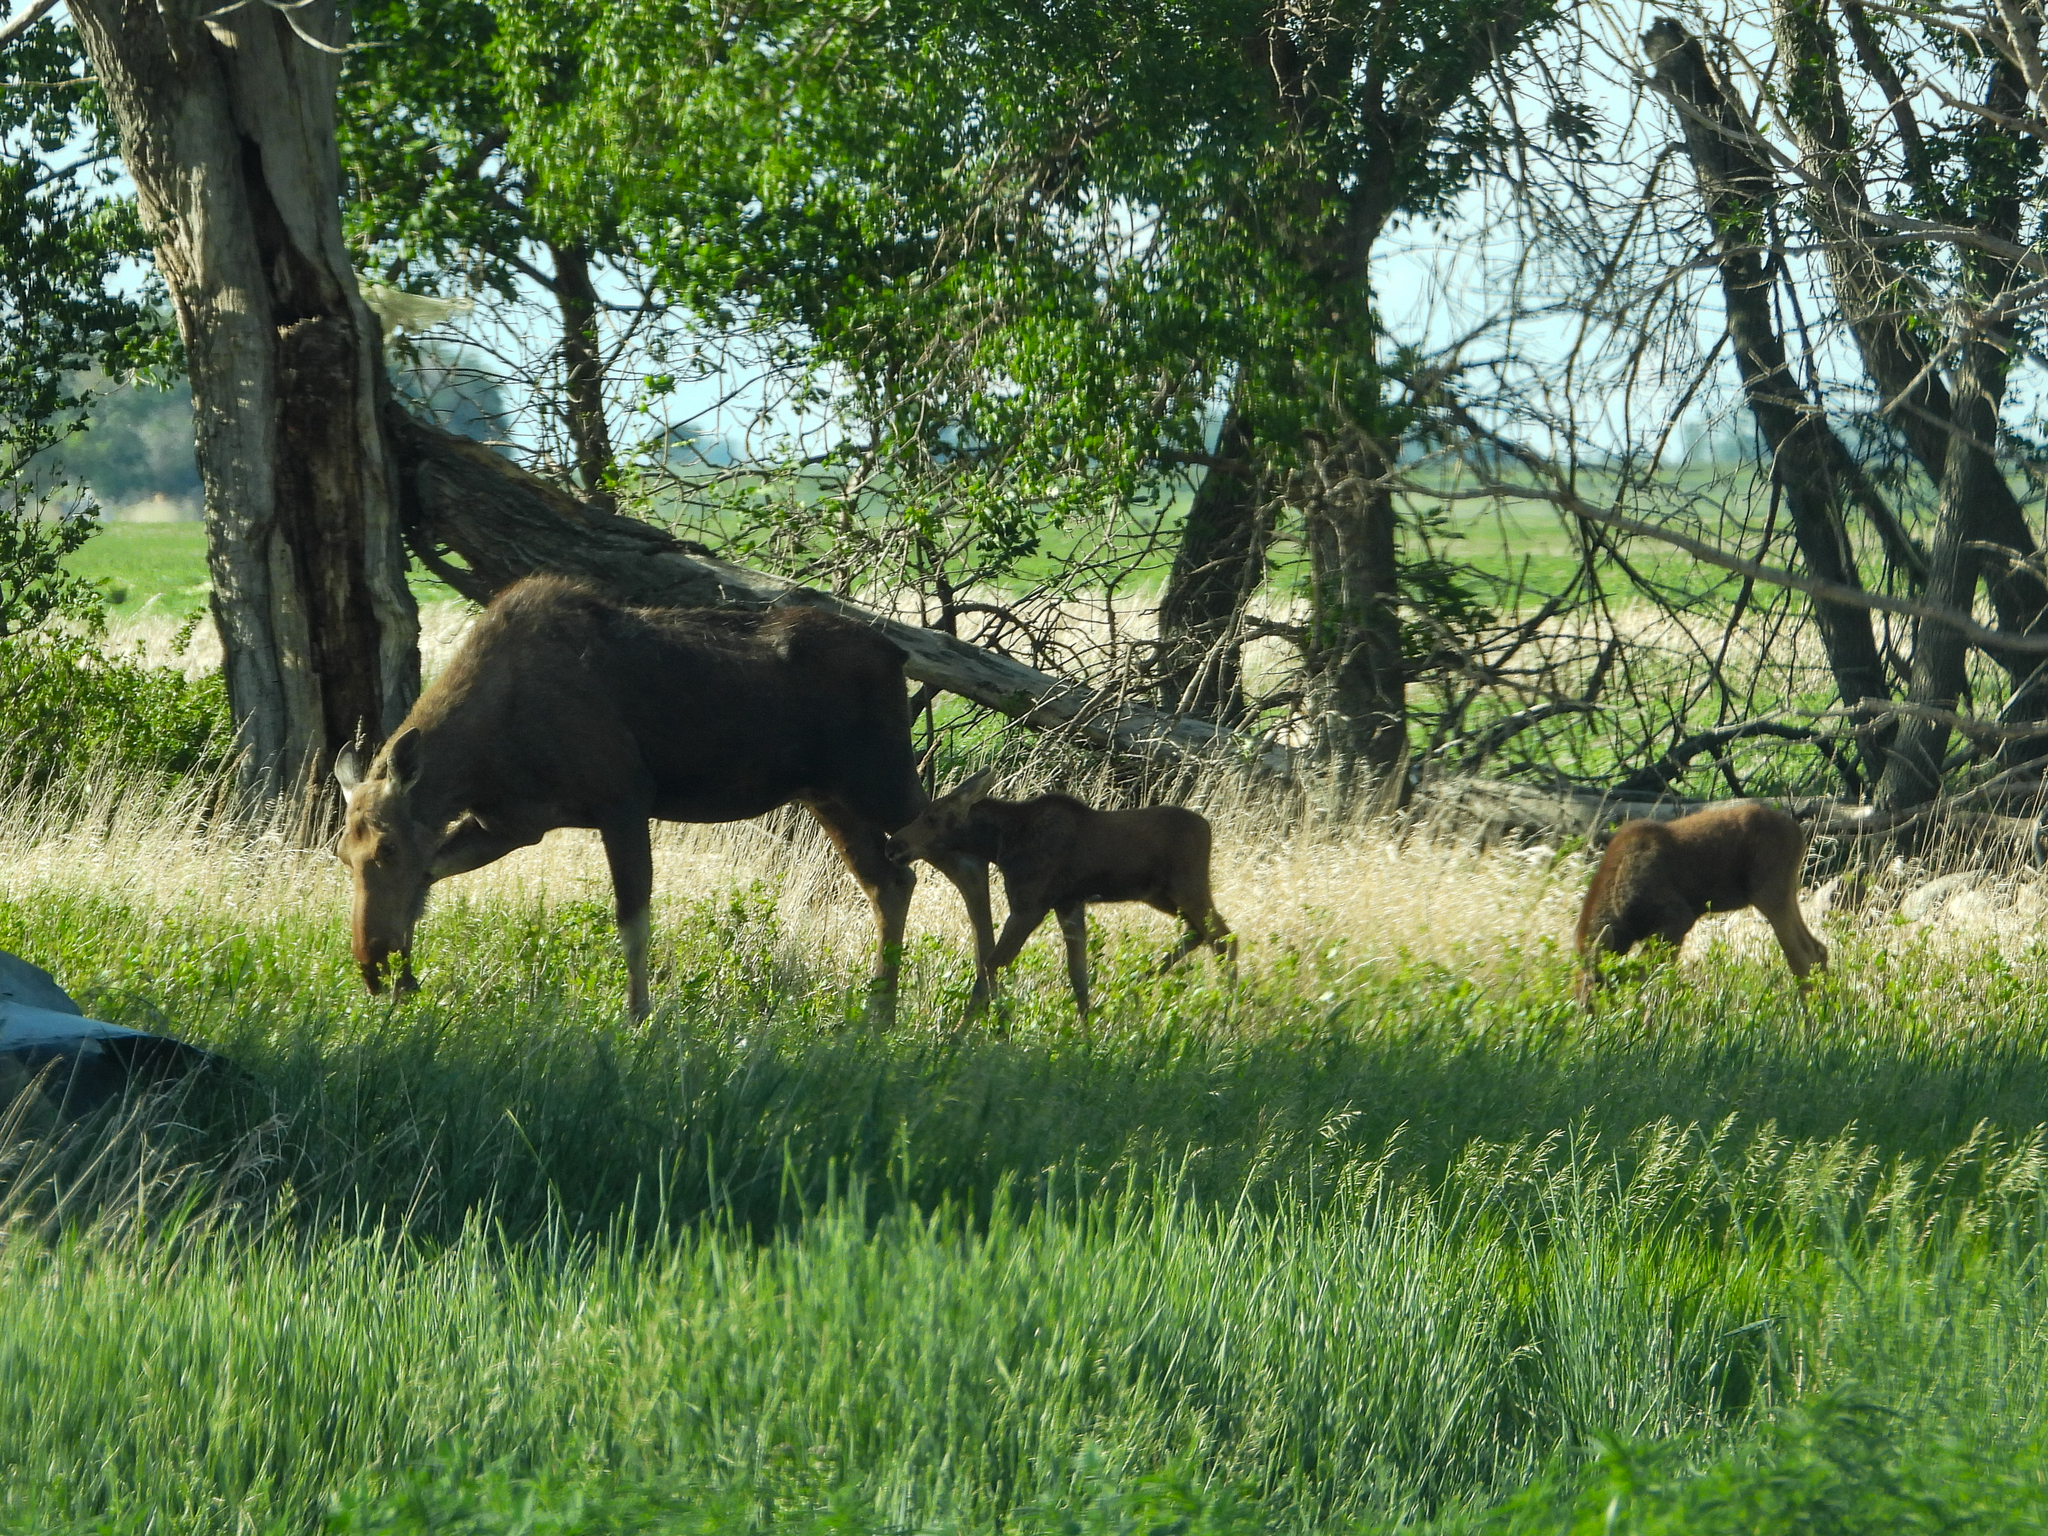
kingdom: Animalia
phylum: Chordata
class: Mammalia
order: Artiodactyla
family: Cervidae
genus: Alces
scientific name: Alces alces
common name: Moose
